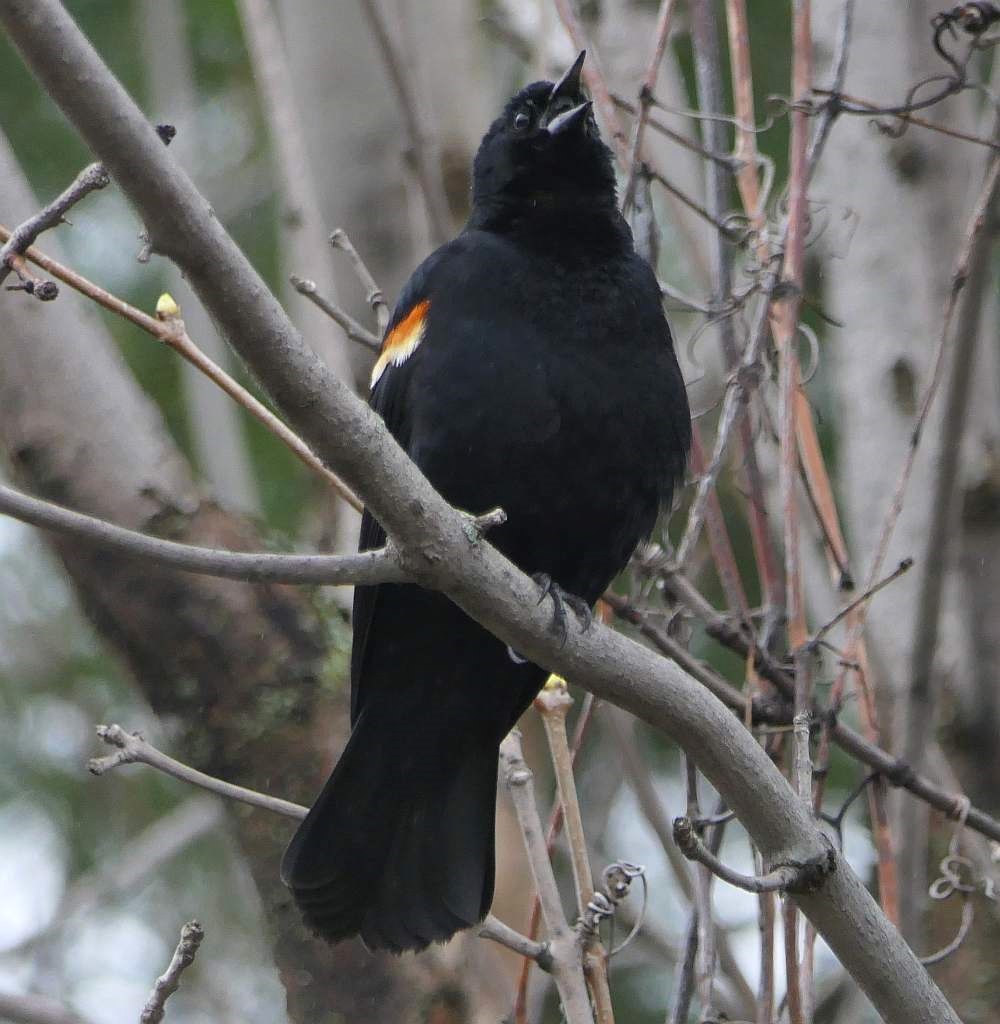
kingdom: Animalia
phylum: Chordata
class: Aves
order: Passeriformes
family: Icteridae
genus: Agelaius
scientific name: Agelaius phoeniceus
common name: Red-winged blackbird
